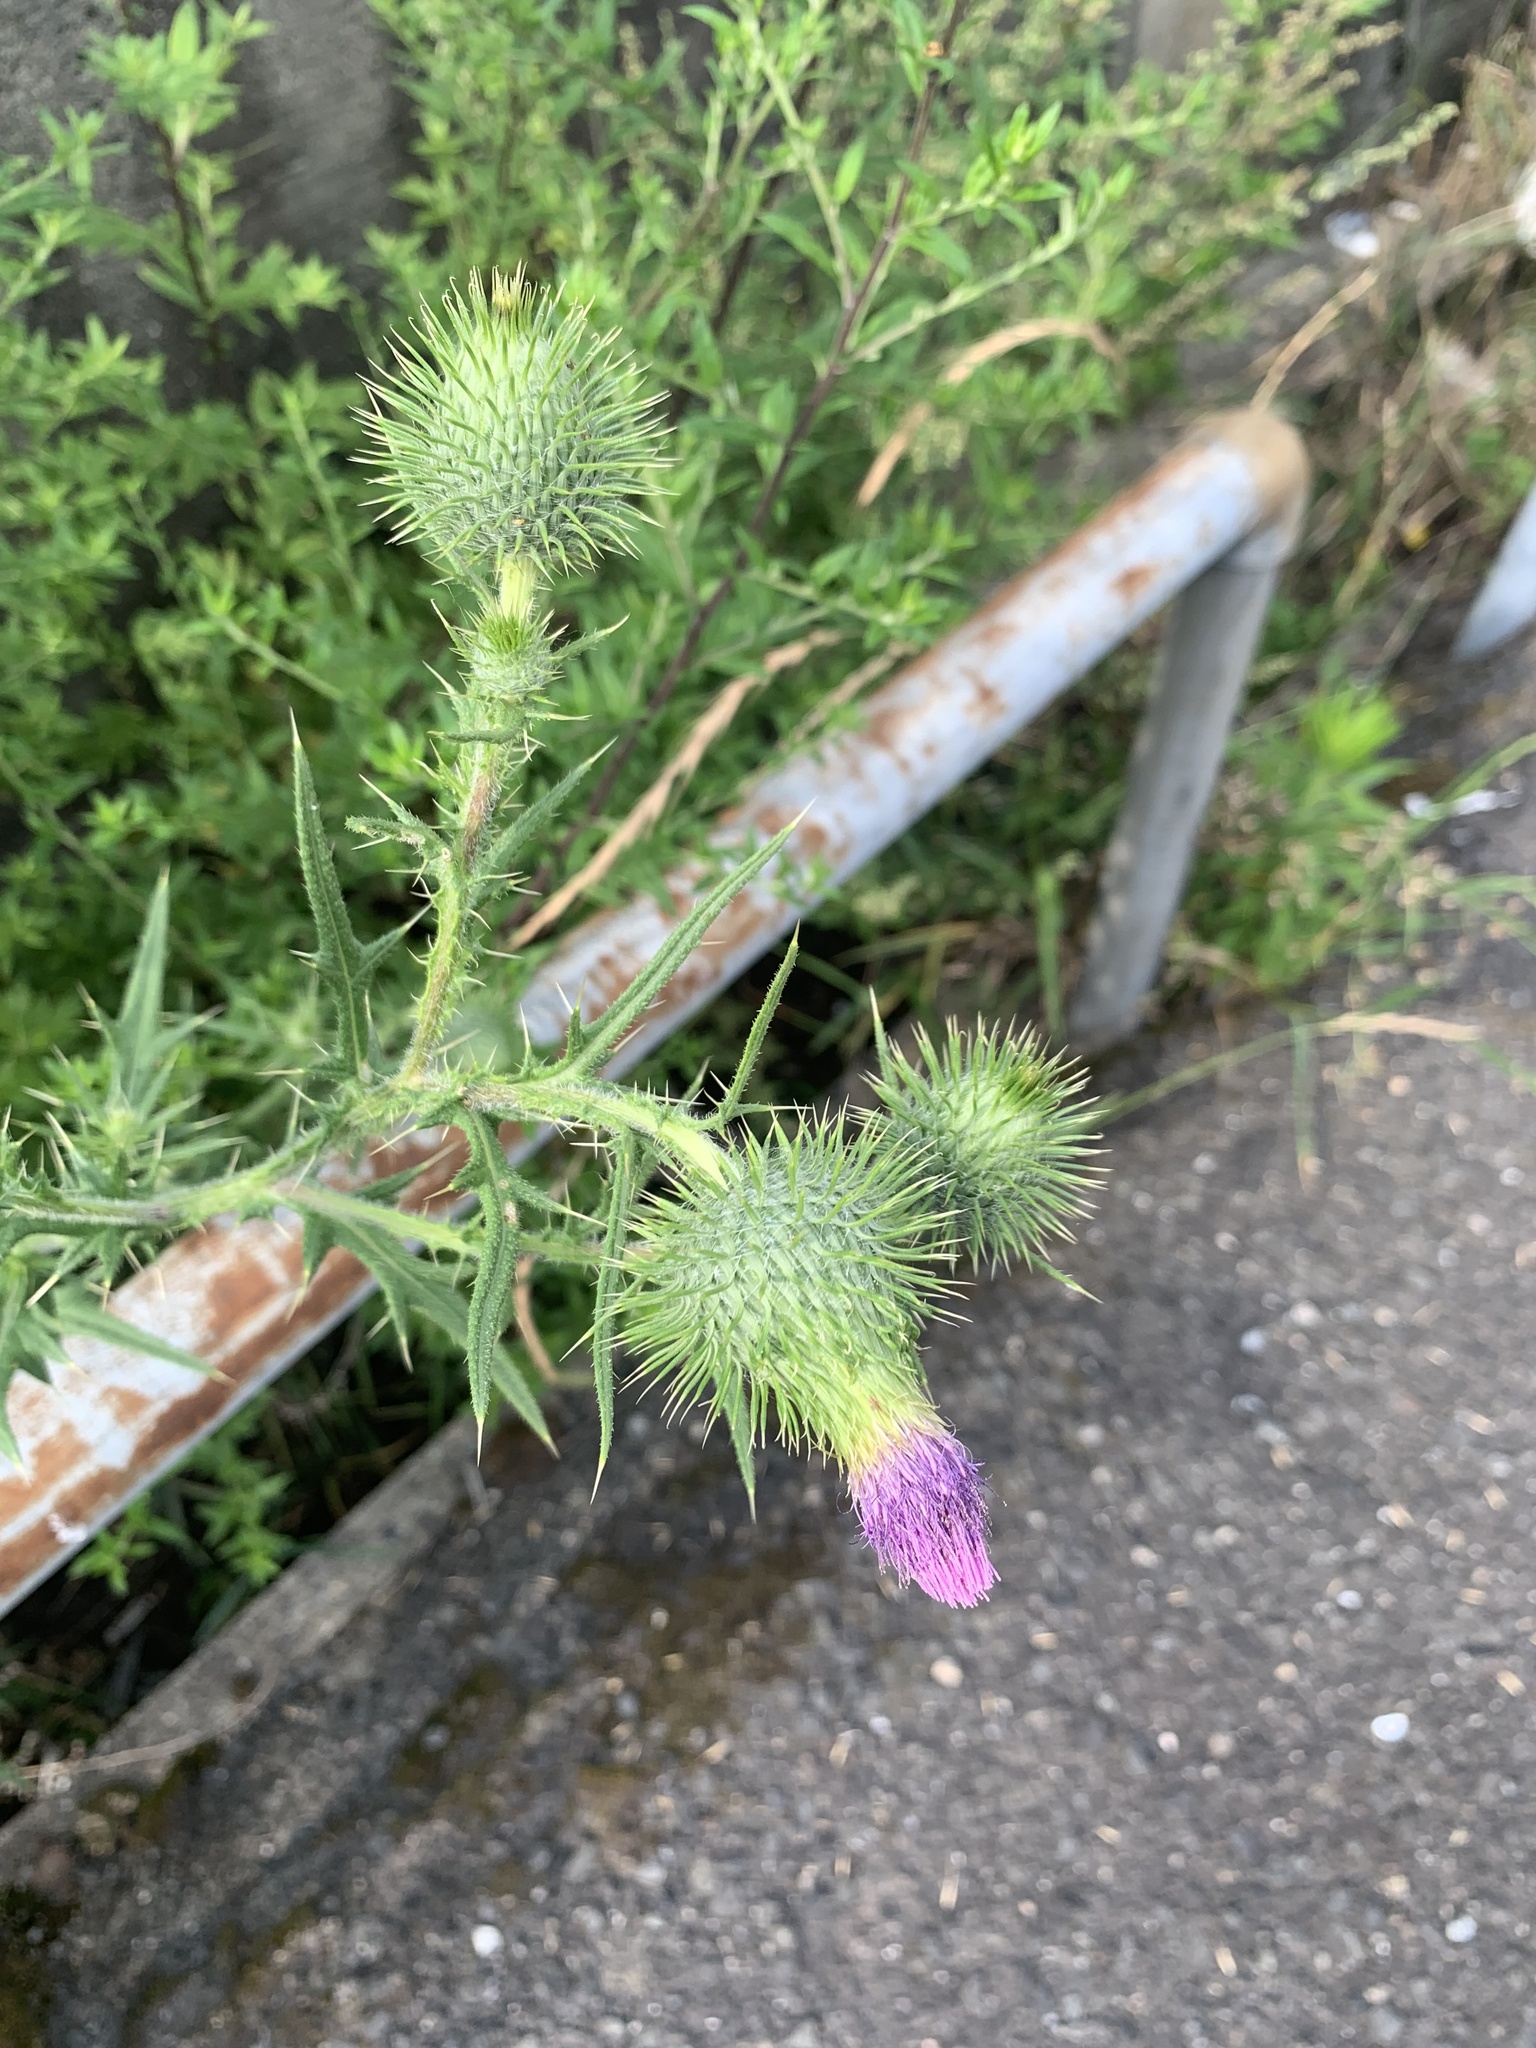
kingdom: Plantae
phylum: Tracheophyta
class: Magnoliopsida
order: Asterales
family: Asteraceae
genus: Cirsium
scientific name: Cirsium vulgare
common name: Bull thistle
